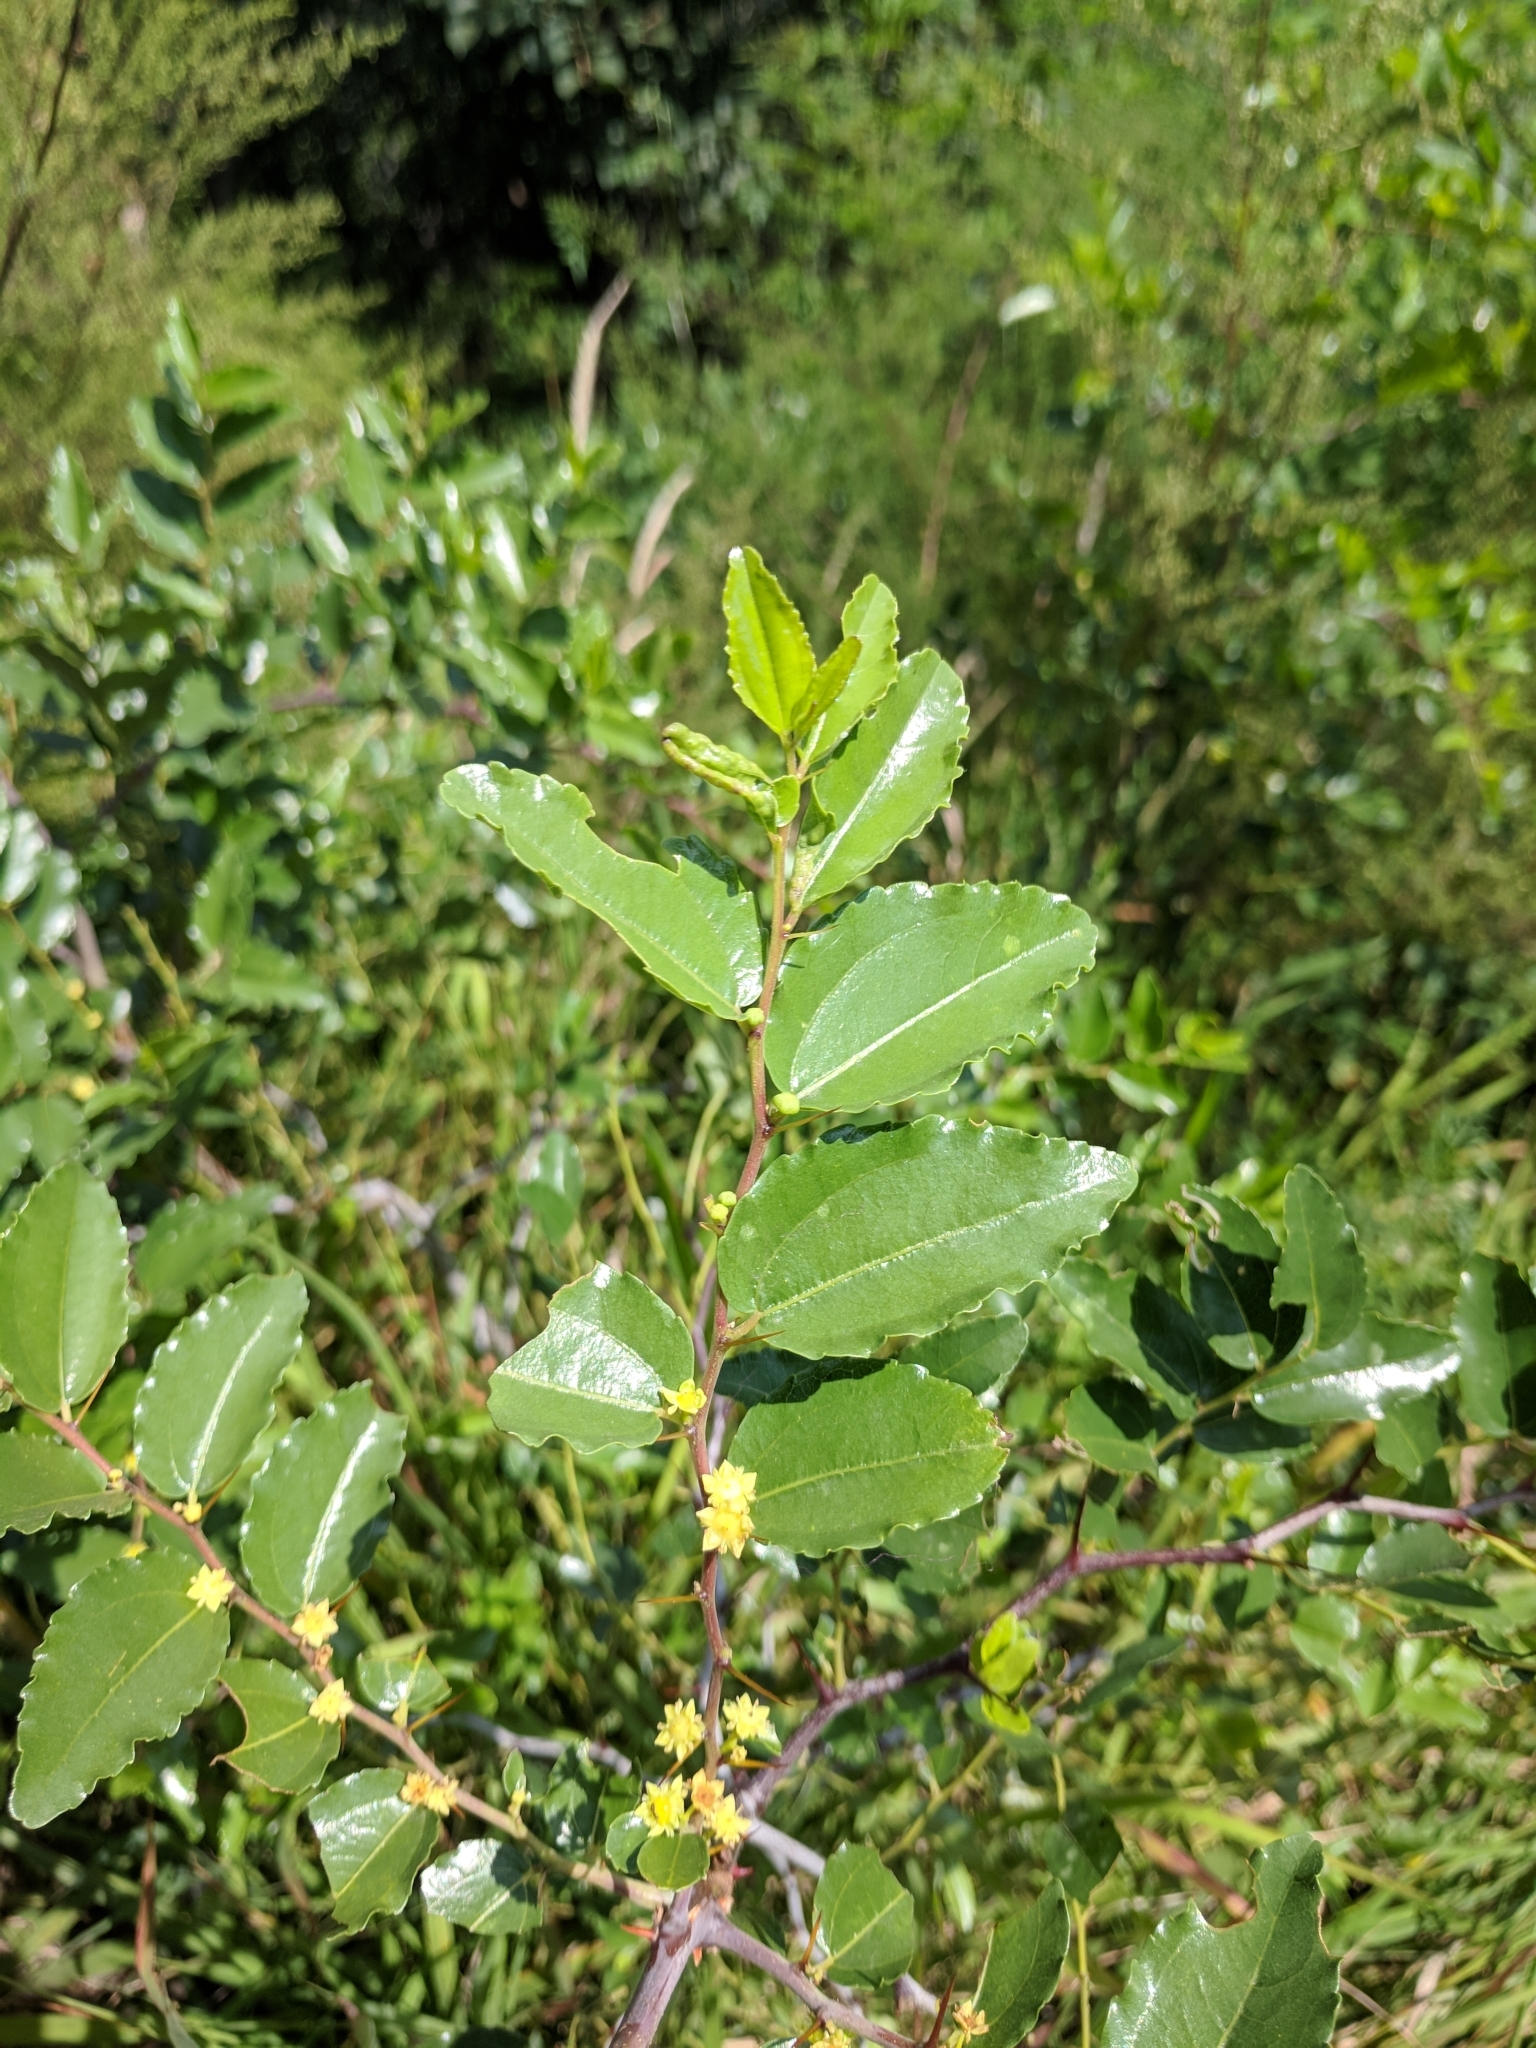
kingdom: Plantae
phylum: Tracheophyta
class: Magnoliopsida
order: Rosales
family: Rhamnaceae
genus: Ziziphus
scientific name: Ziziphus jujuba
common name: Jujube red date
